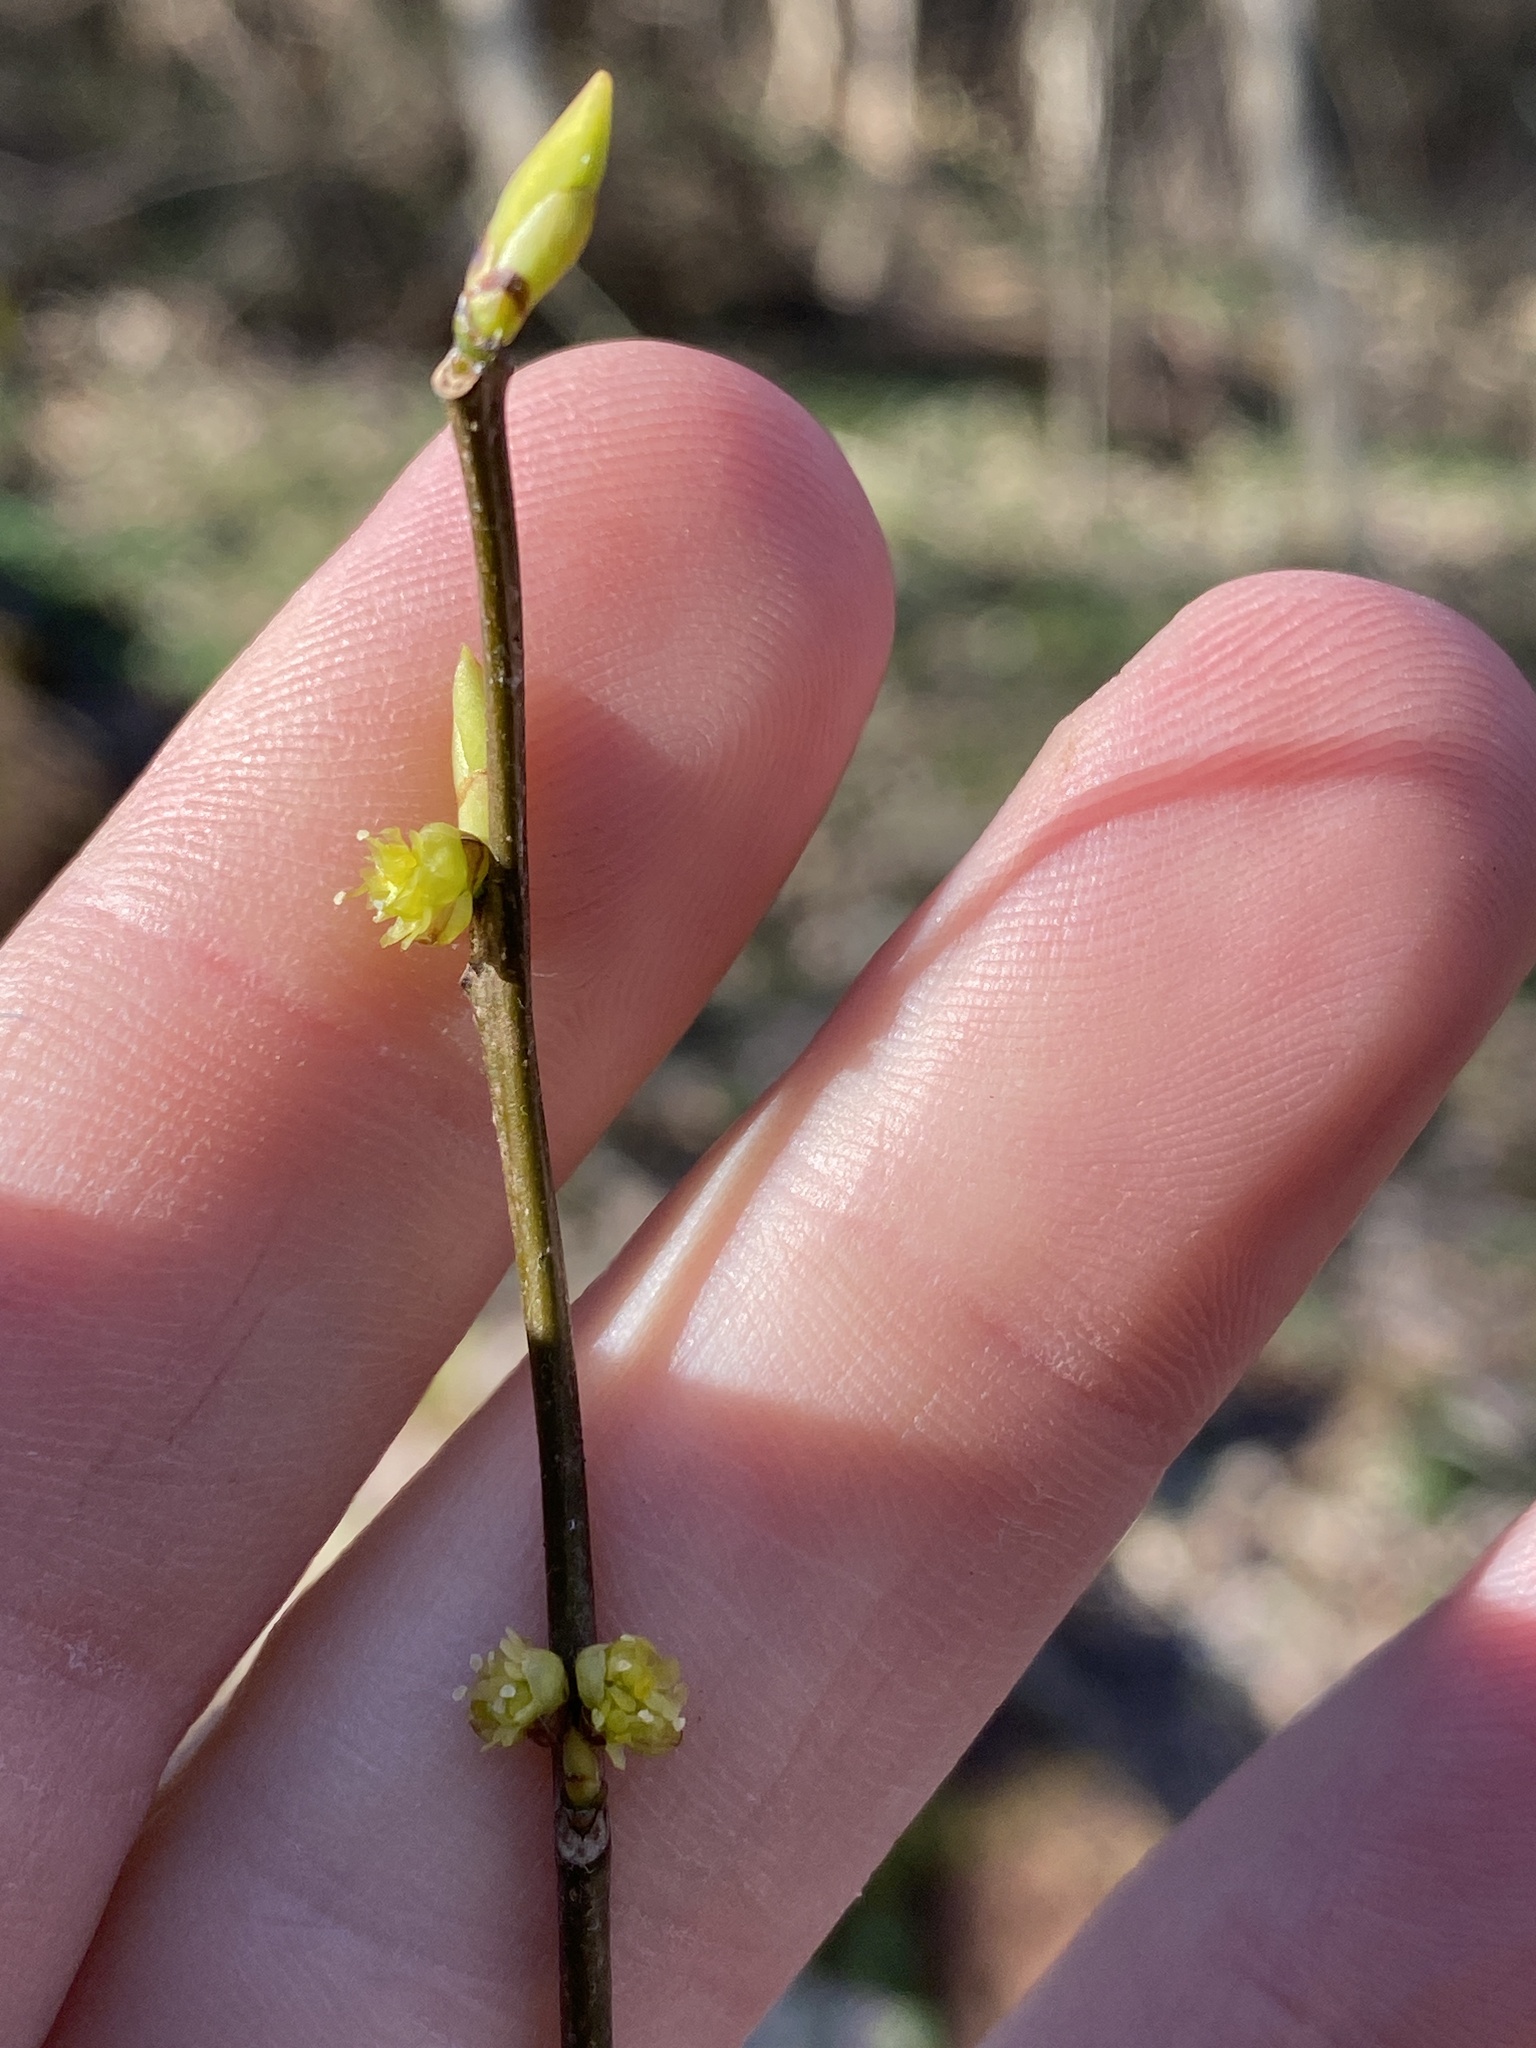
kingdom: Plantae
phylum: Tracheophyta
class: Magnoliopsida
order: Laurales
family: Lauraceae
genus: Lindera
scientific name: Lindera benzoin
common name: Spicebush
